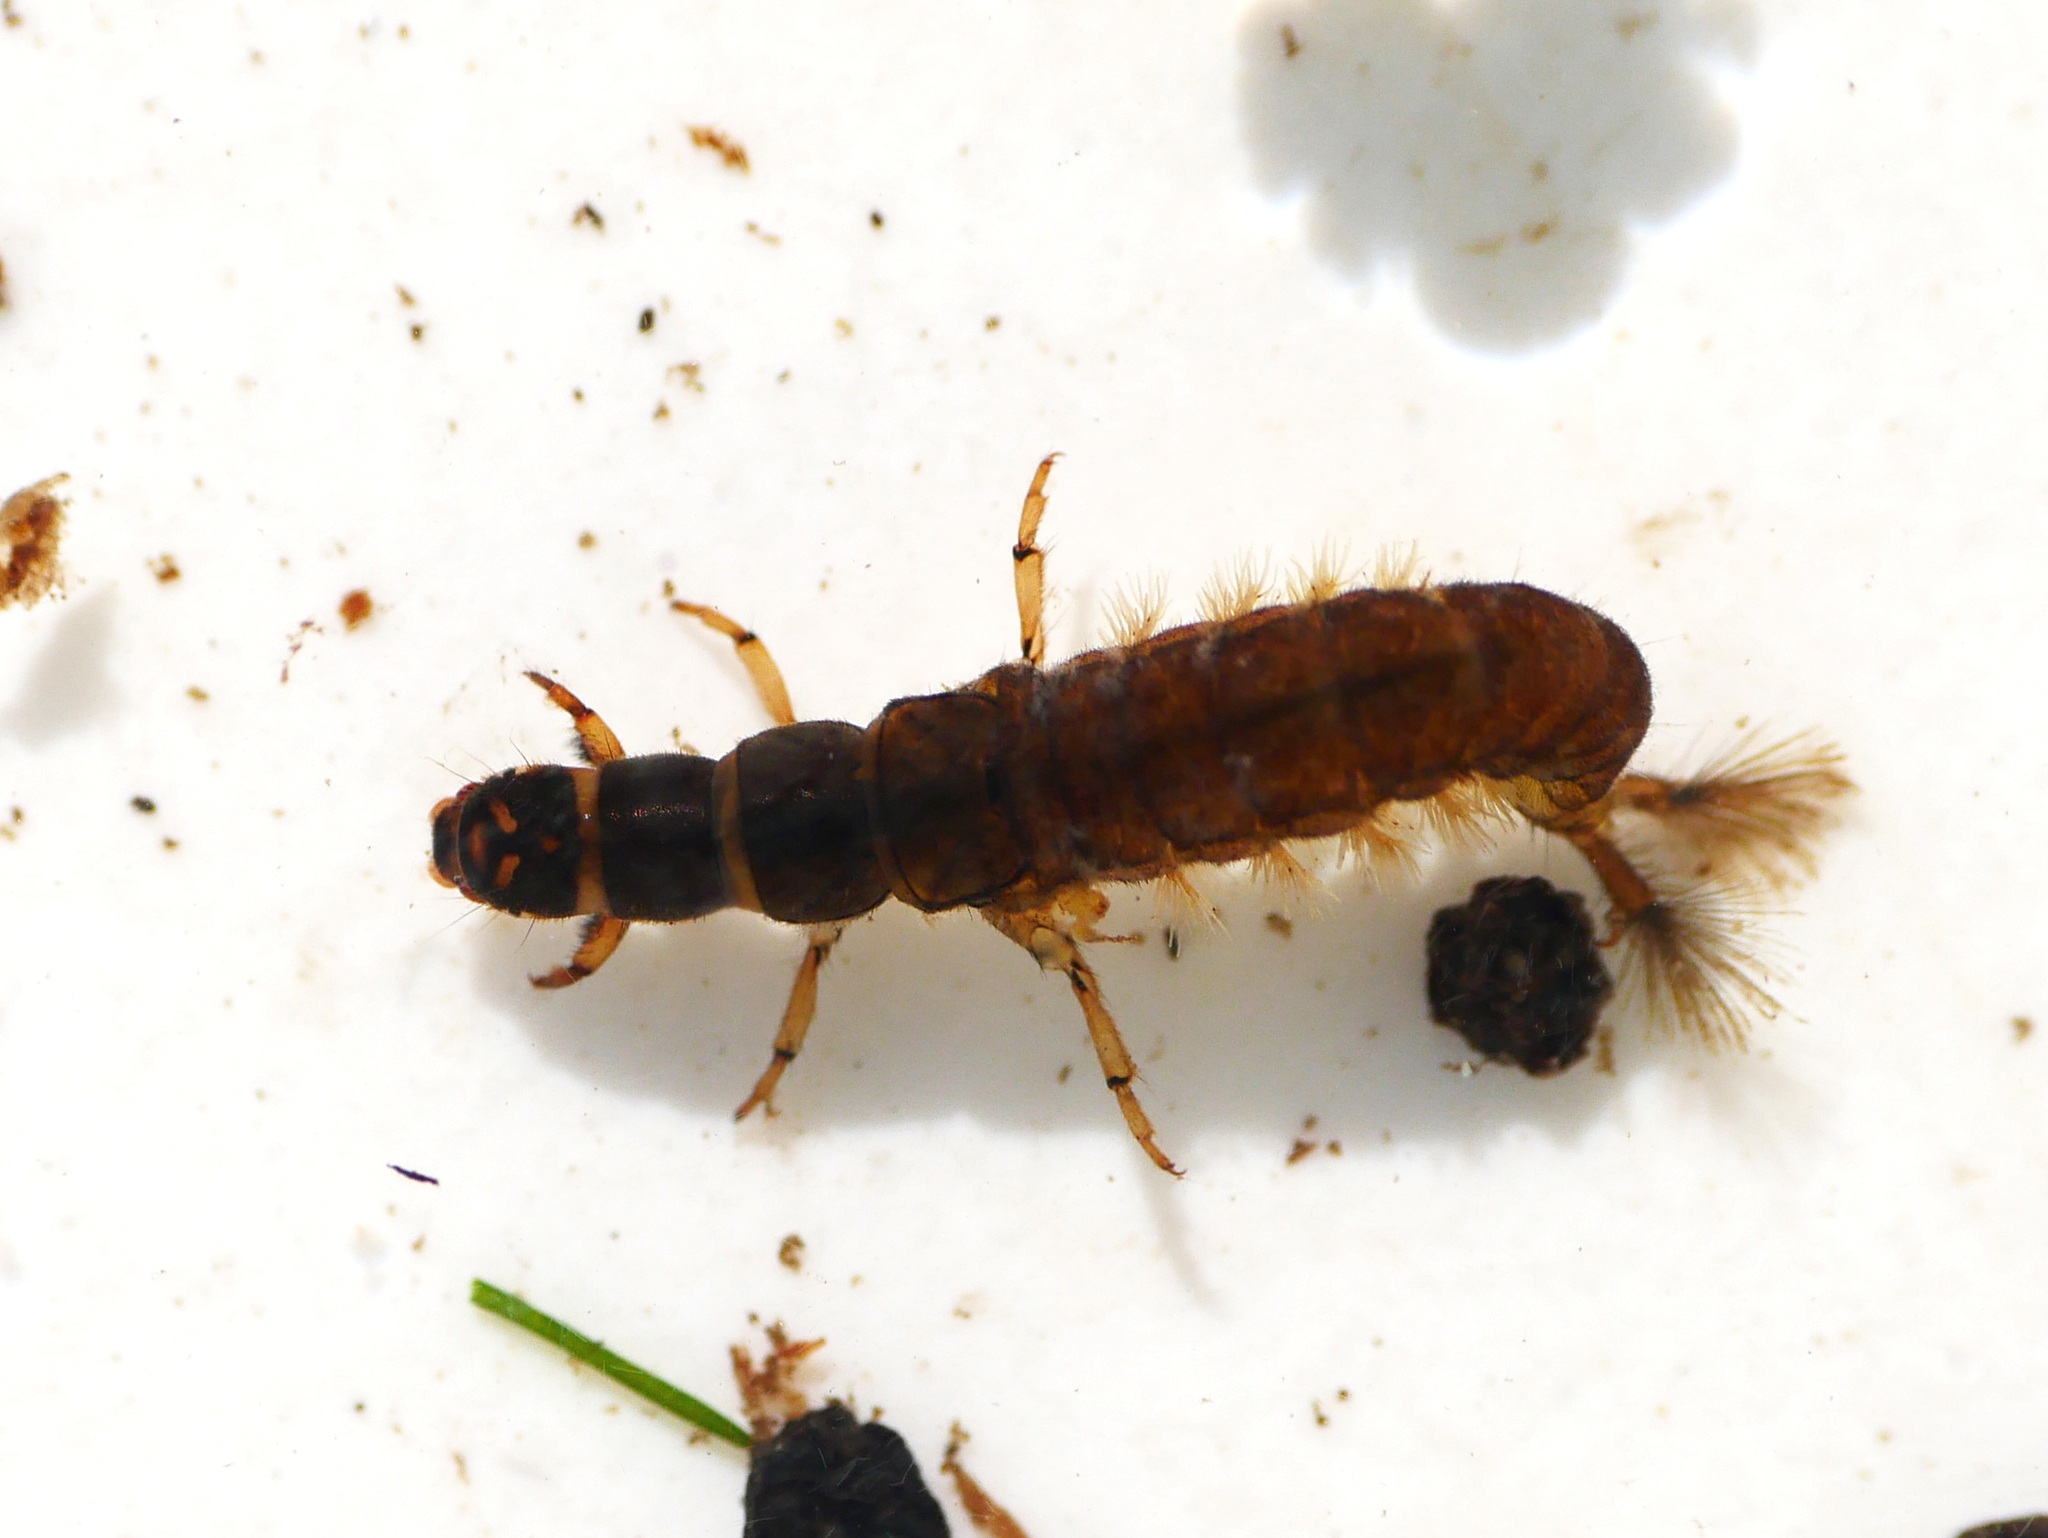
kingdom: Animalia
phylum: Arthropoda
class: Insecta
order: Trichoptera
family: Hydropsychidae
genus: Hydropsyche
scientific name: Hydropsyche pellucidula
